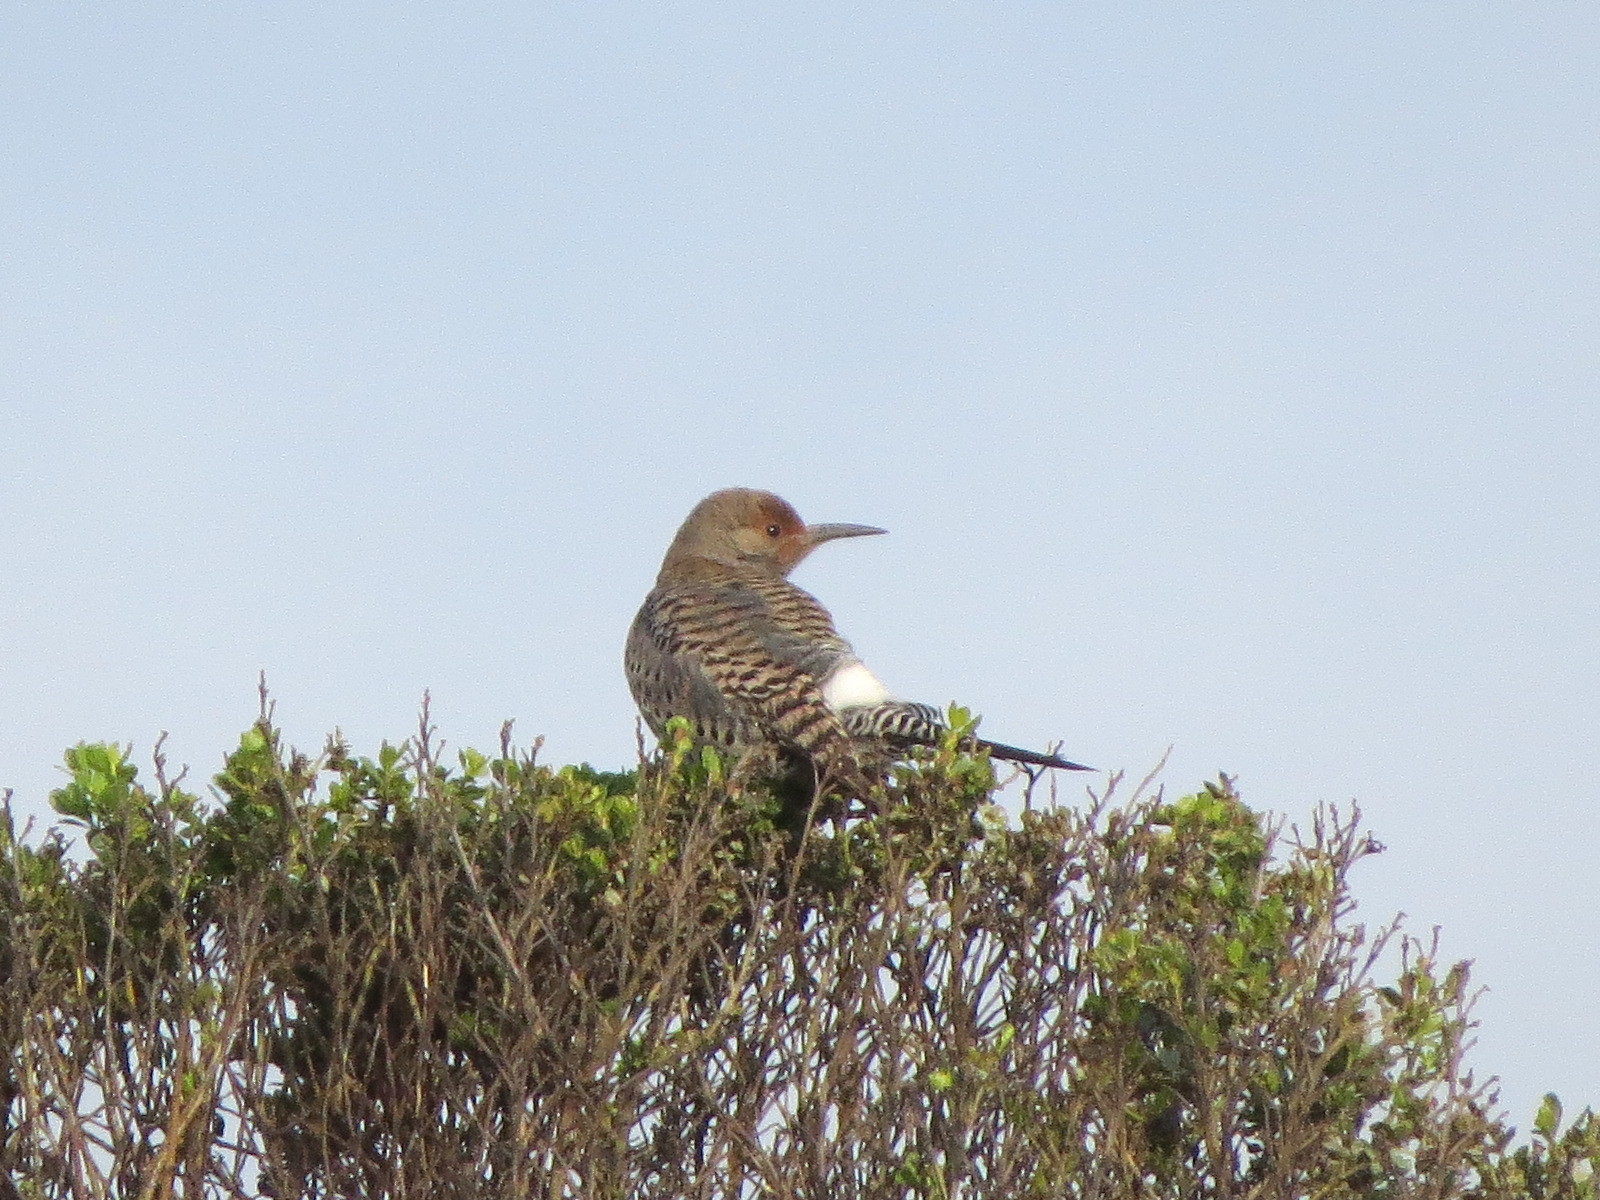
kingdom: Animalia
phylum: Chordata
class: Aves
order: Piciformes
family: Picidae
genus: Colaptes
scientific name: Colaptes auratus
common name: Northern flicker
